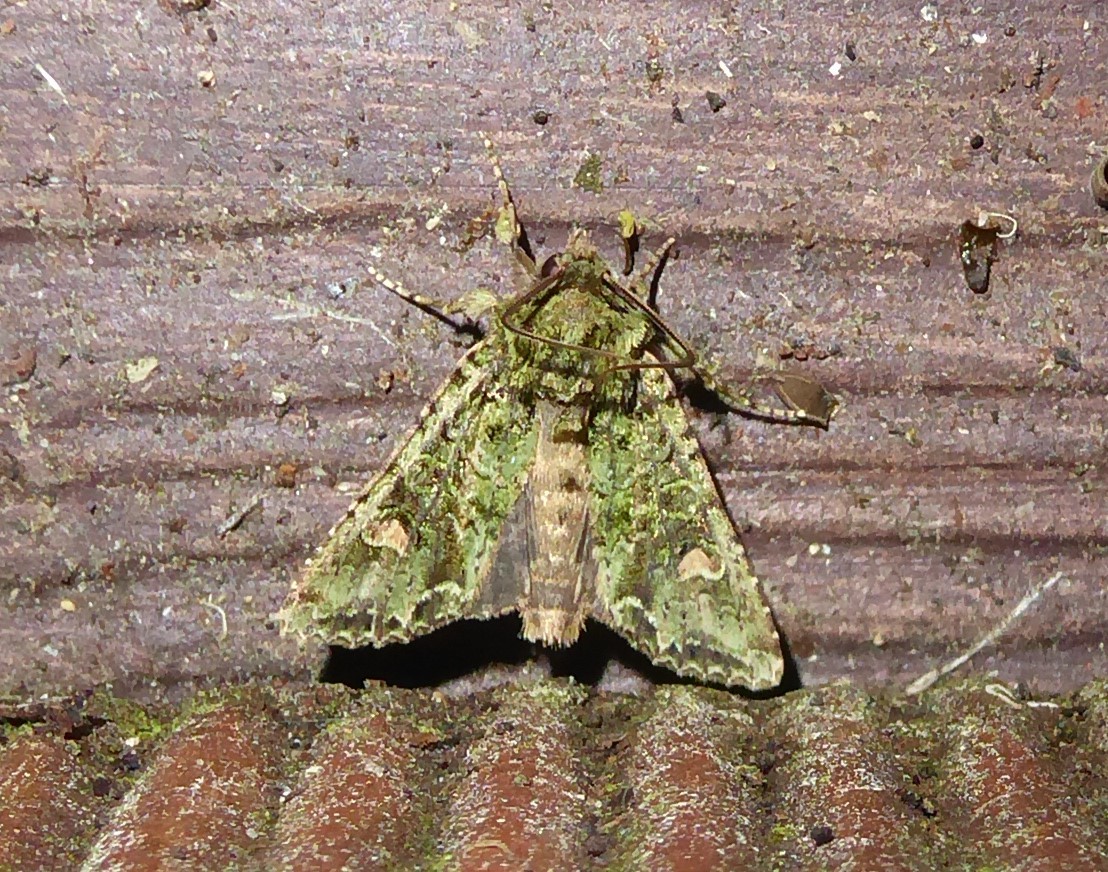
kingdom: Animalia
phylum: Arthropoda
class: Insecta
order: Lepidoptera
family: Noctuidae
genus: Ichneutica
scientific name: Ichneutica
